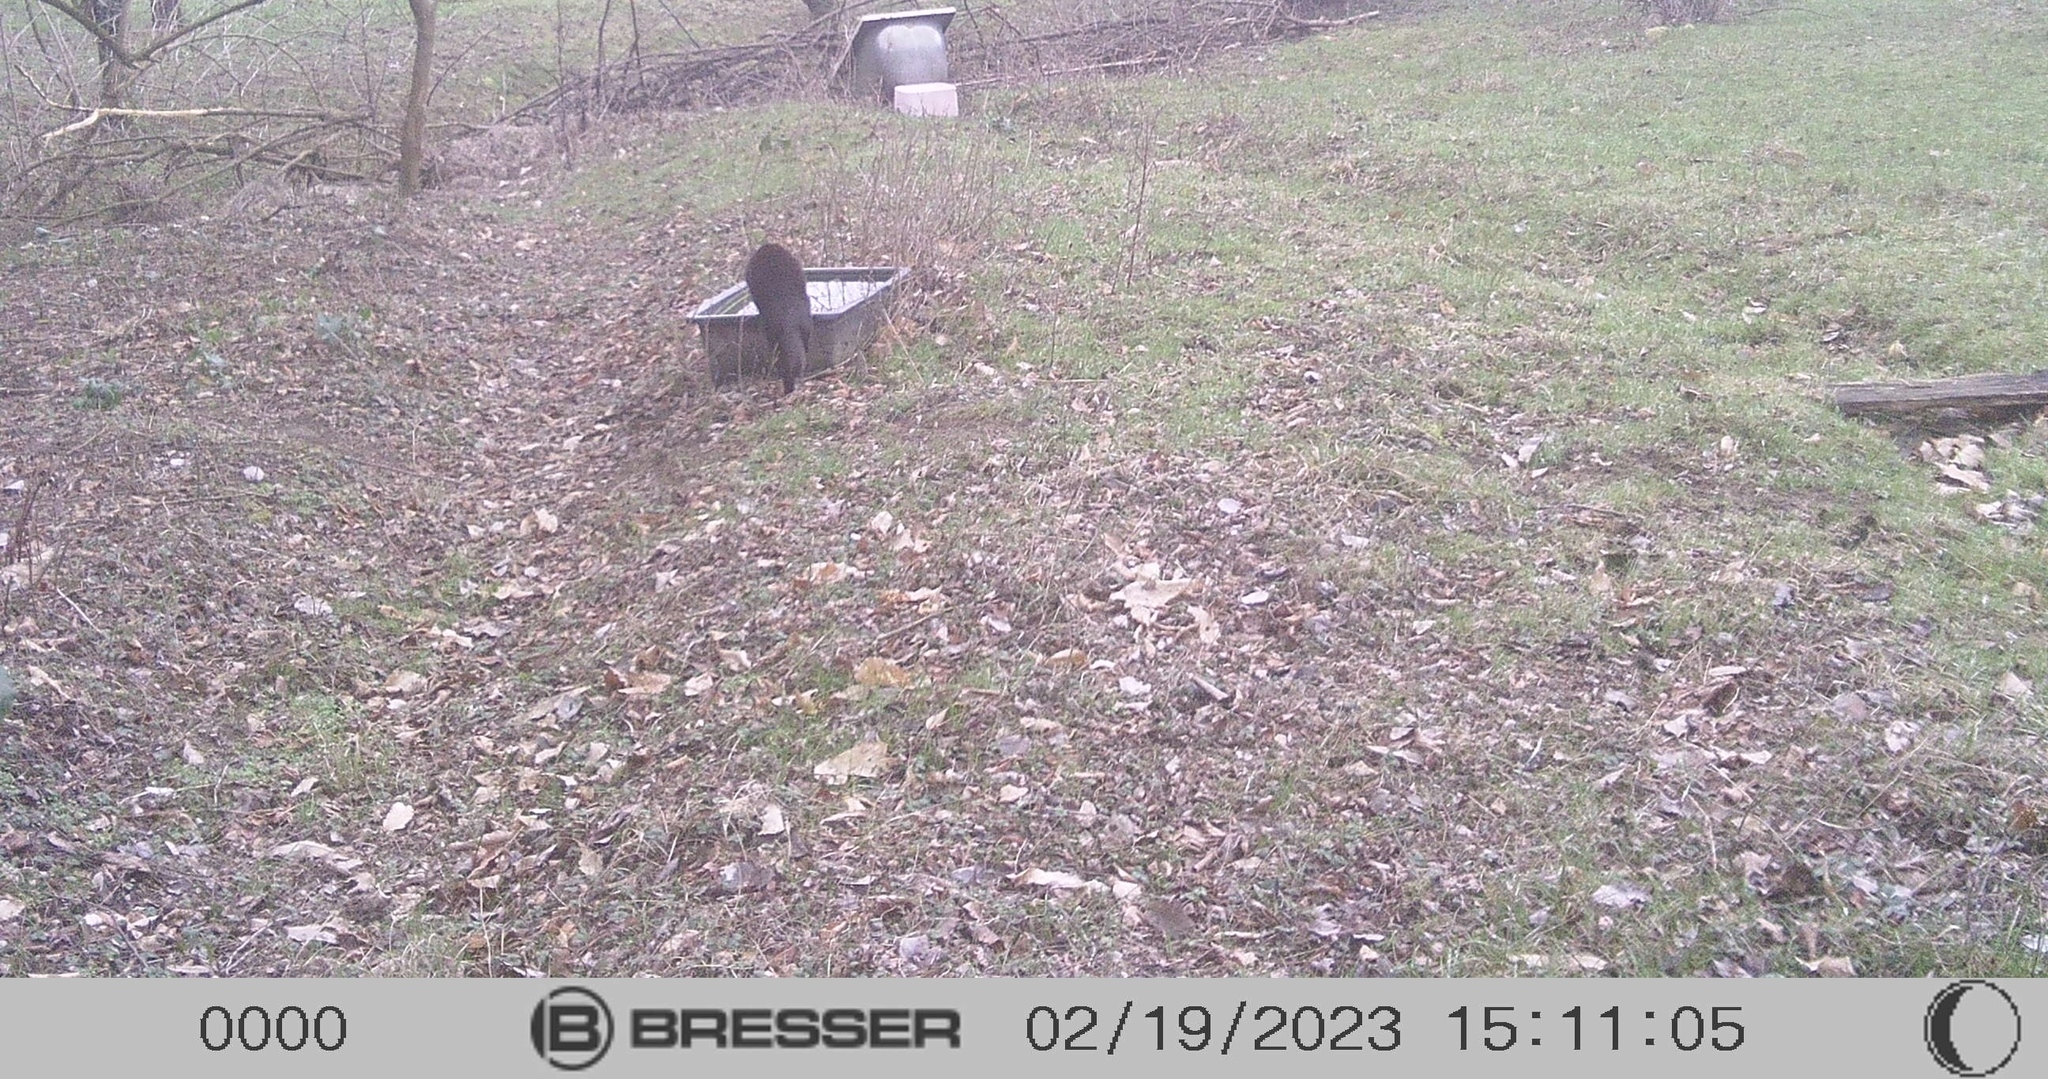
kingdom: Animalia
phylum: Chordata
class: Mammalia
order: Carnivora
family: Felidae
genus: Felis
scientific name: Felis catus
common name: Domestic cat
